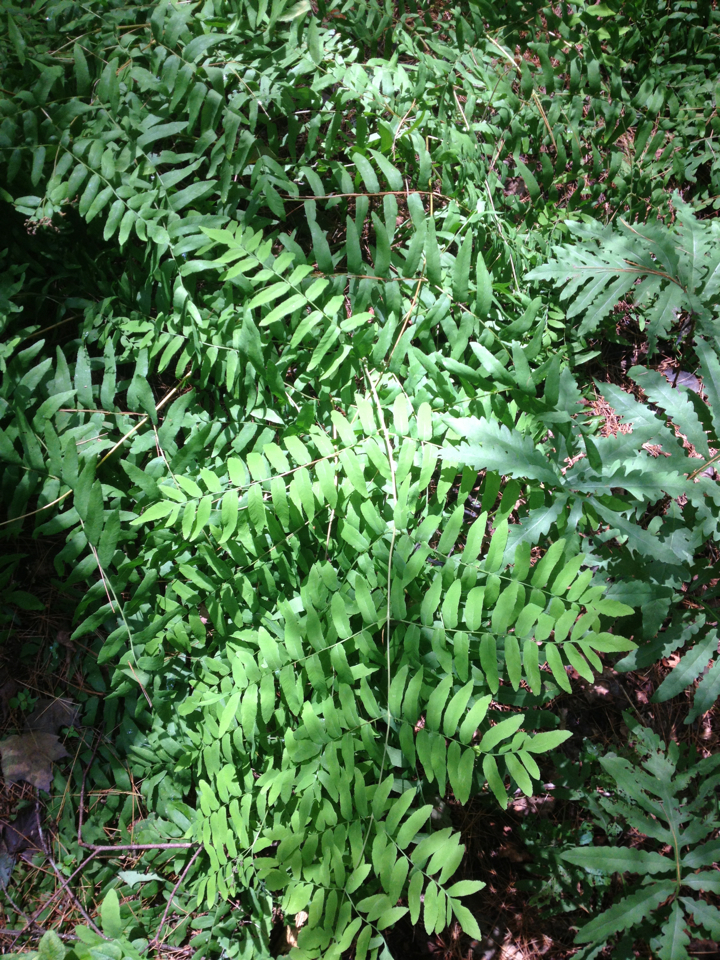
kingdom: Plantae
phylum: Tracheophyta
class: Polypodiopsida
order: Osmundales
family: Osmundaceae
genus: Osmunda
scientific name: Osmunda spectabilis
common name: American royal fern
